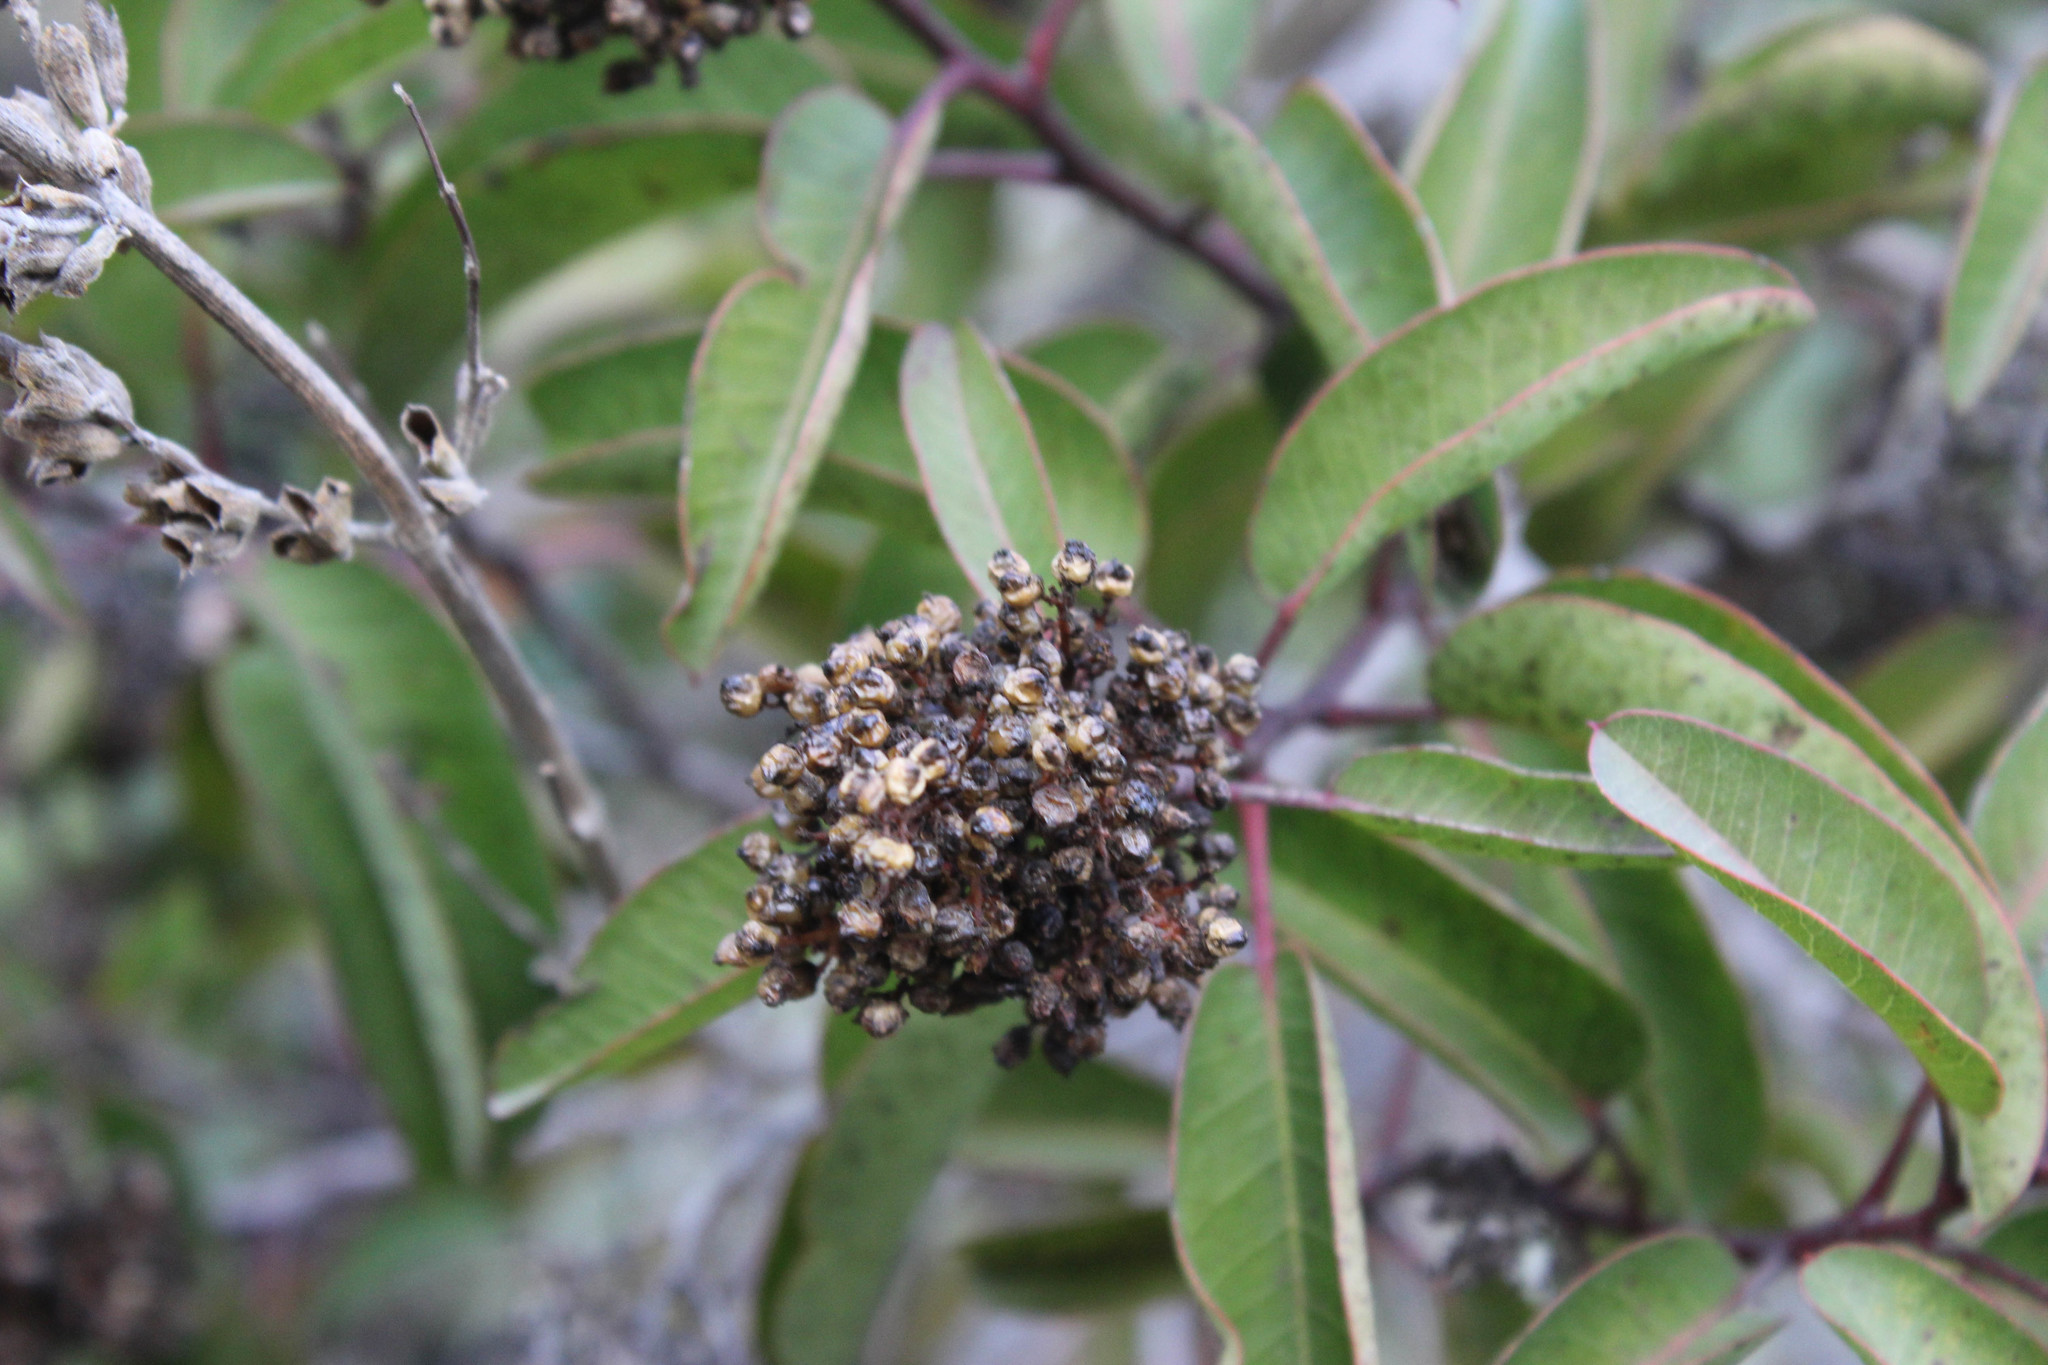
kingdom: Plantae
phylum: Tracheophyta
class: Magnoliopsida
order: Sapindales
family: Anacardiaceae
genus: Malosma
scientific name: Malosma laurina
